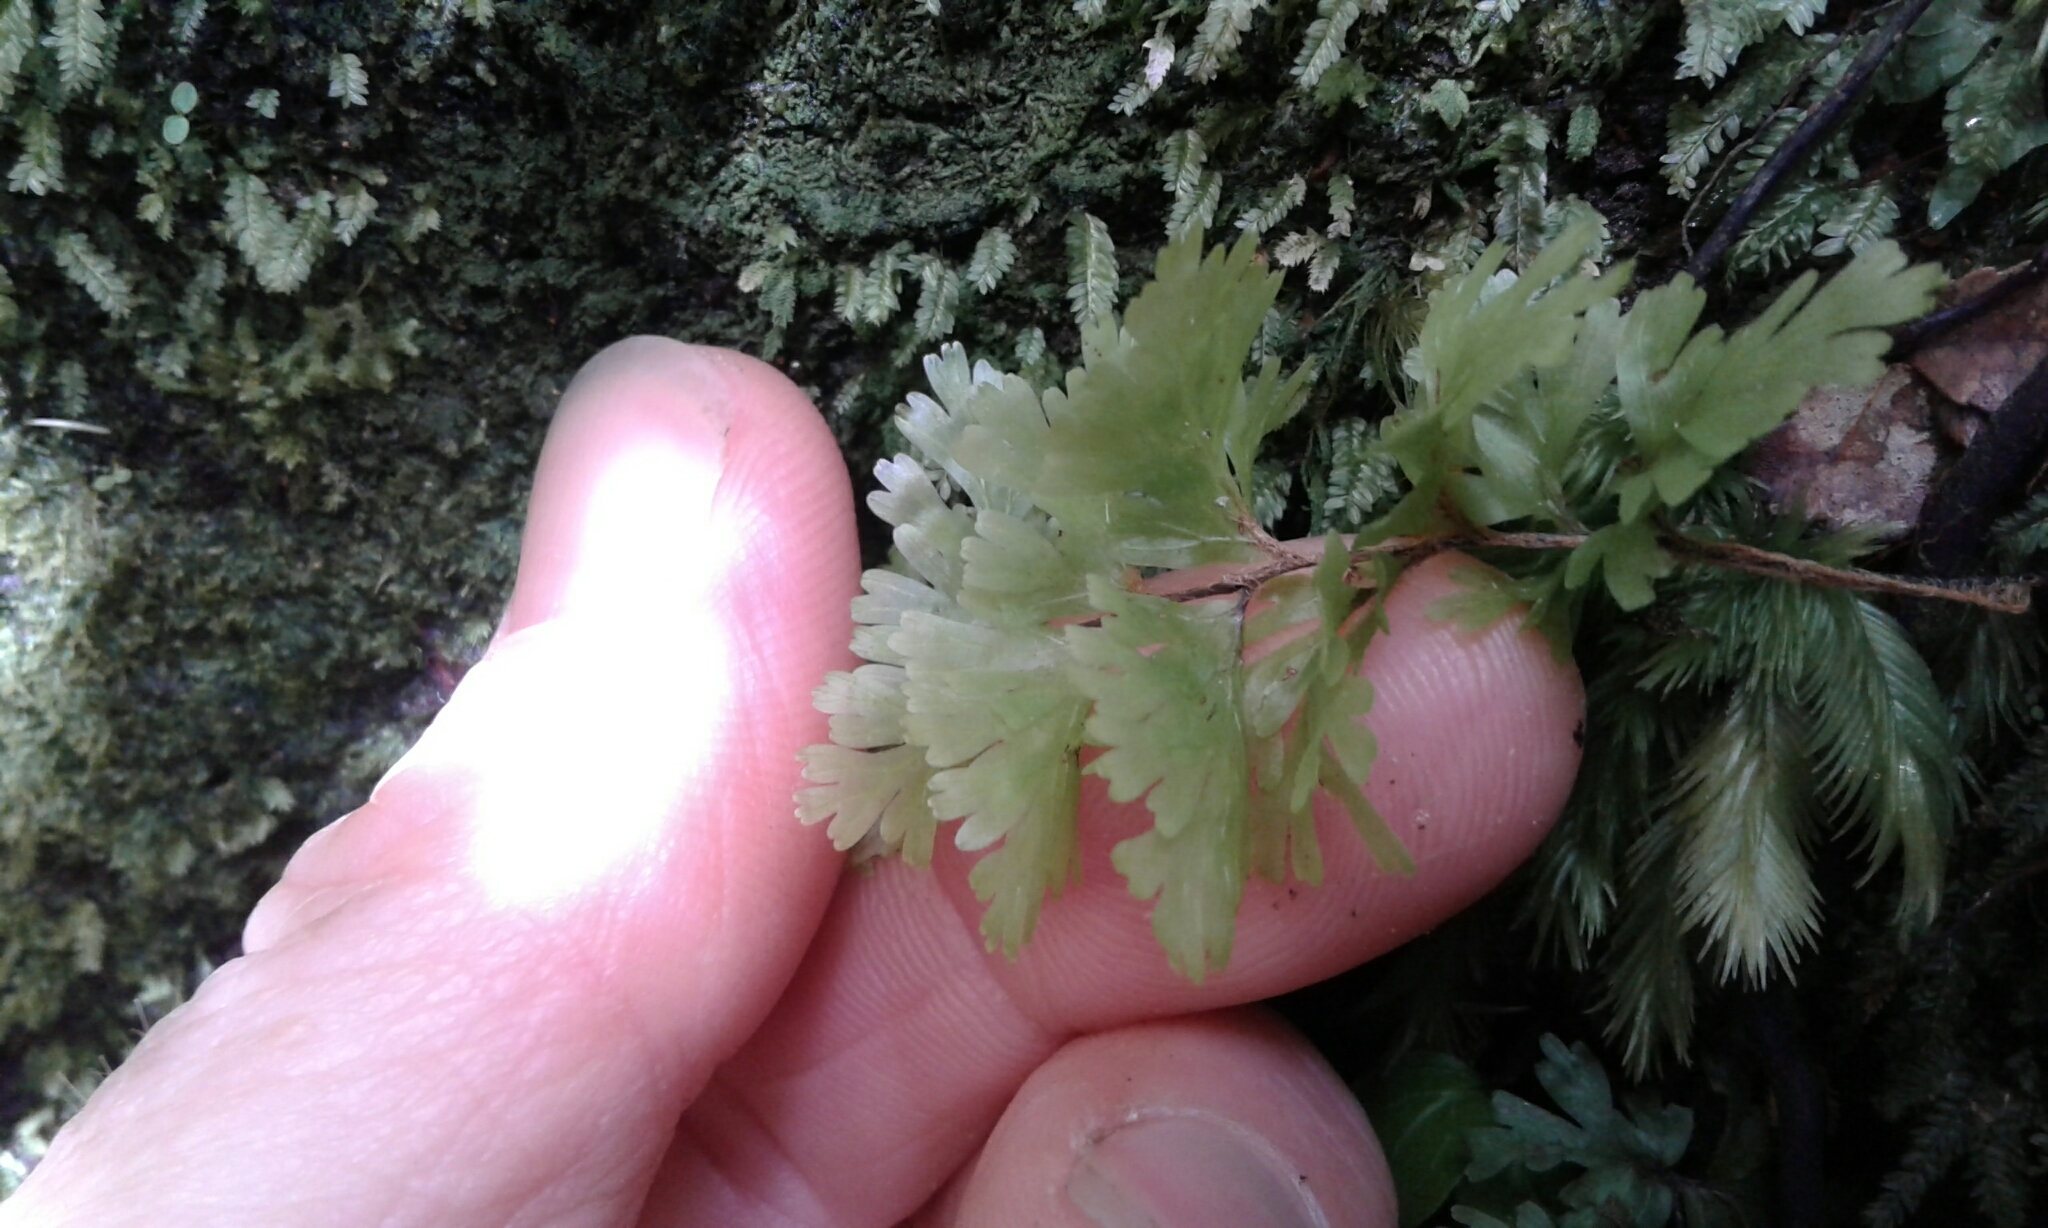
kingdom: Plantae
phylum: Tracheophyta
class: Polypodiopsida
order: Hymenophyllales
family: Hymenophyllaceae
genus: Hymenophyllum
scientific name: Hymenophyllum flabellatum
